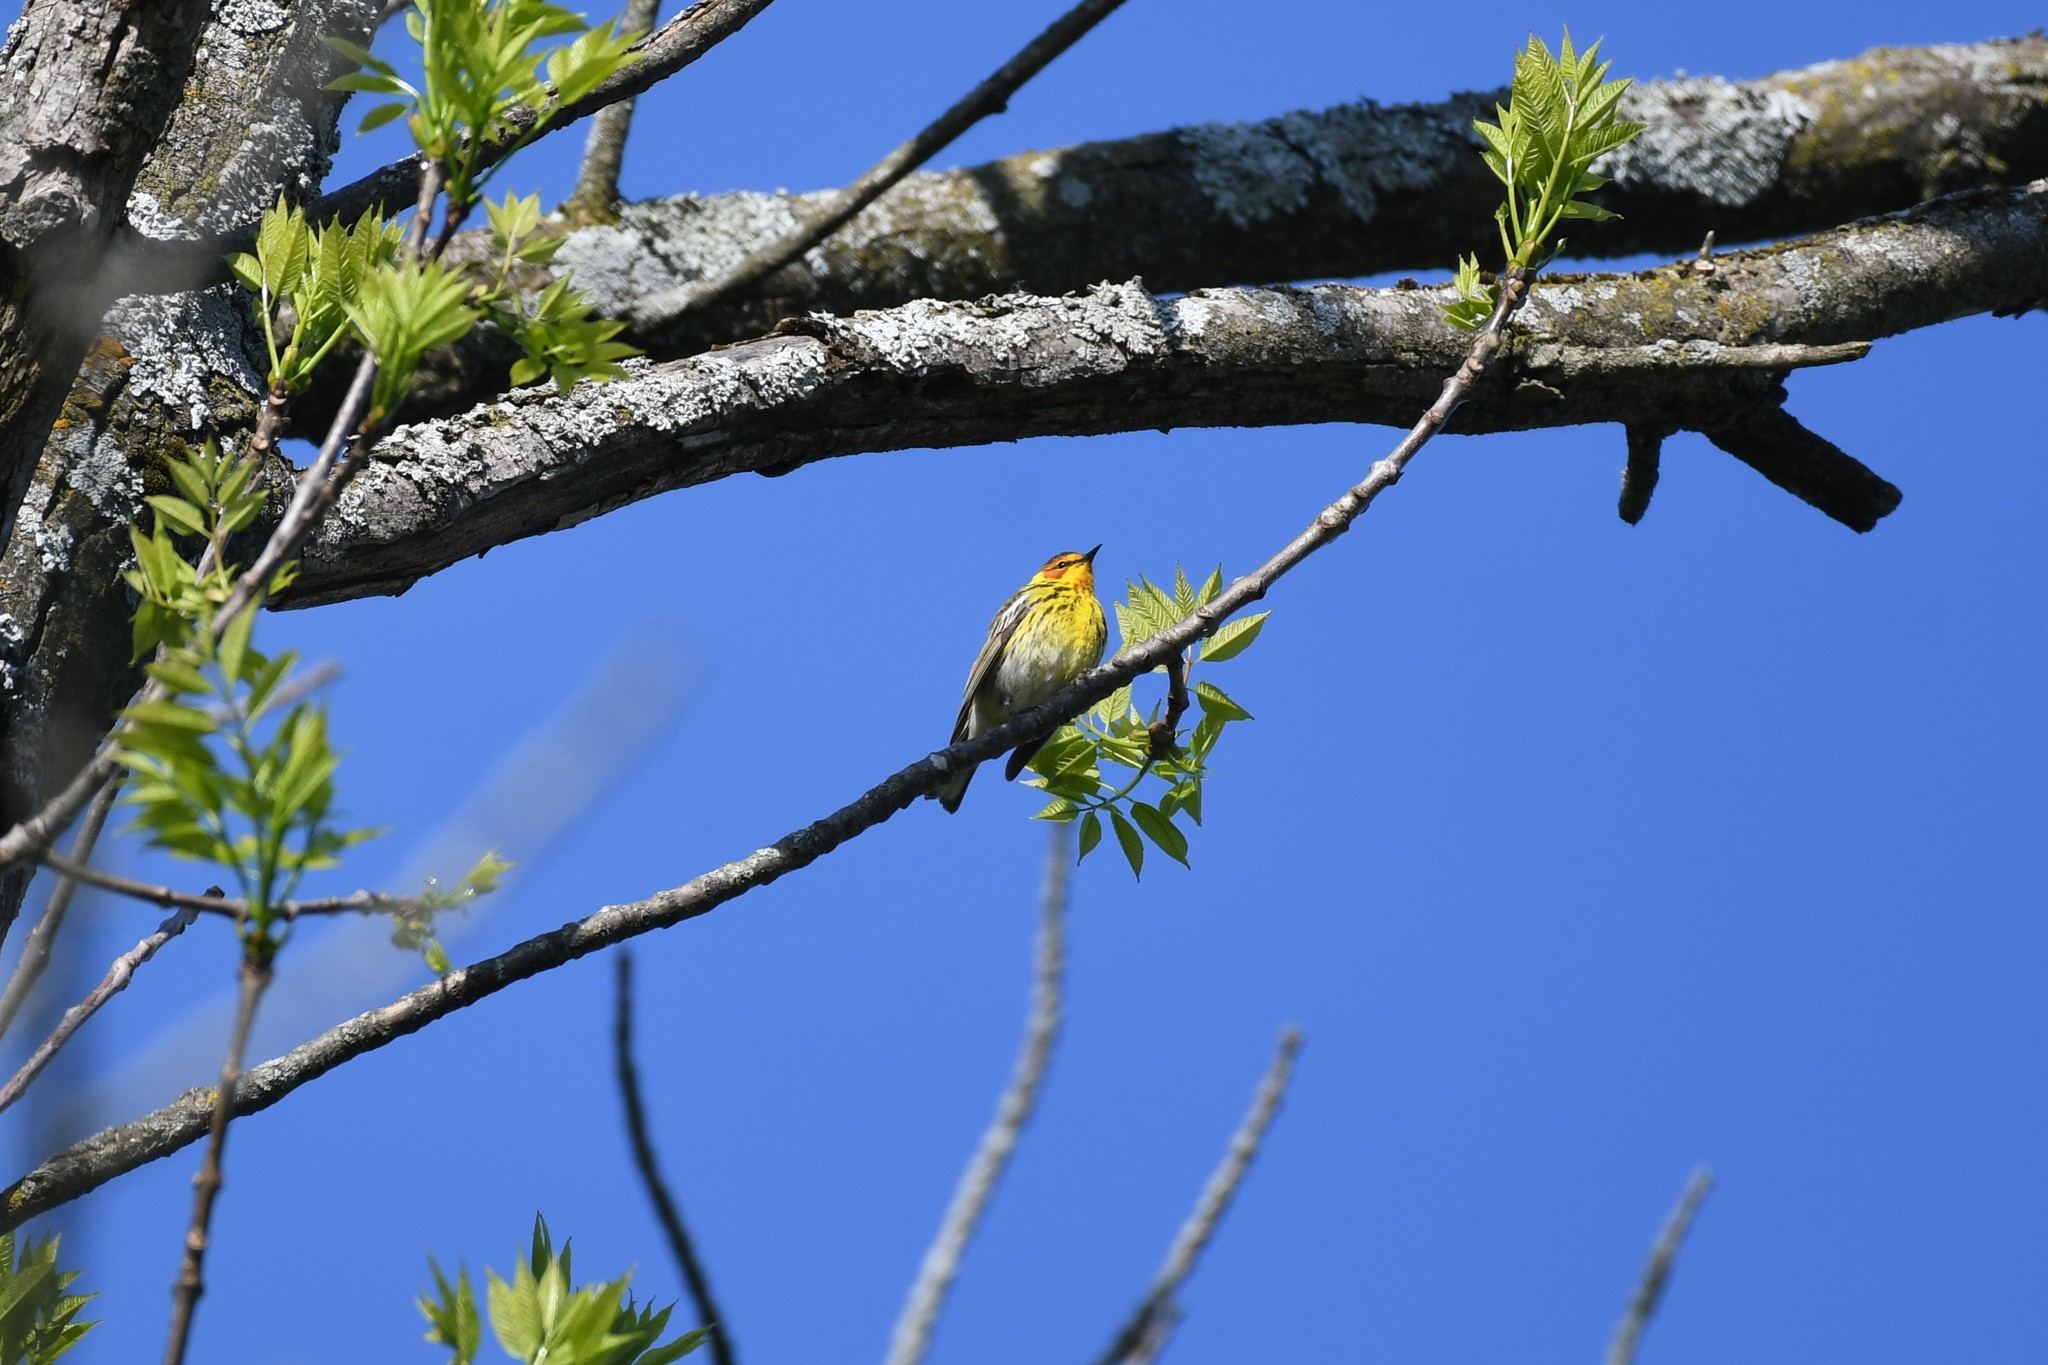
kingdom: Animalia
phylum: Chordata
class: Aves
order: Passeriformes
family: Parulidae
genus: Setophaga
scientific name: Setophaga tigrina
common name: Cape may warbler
